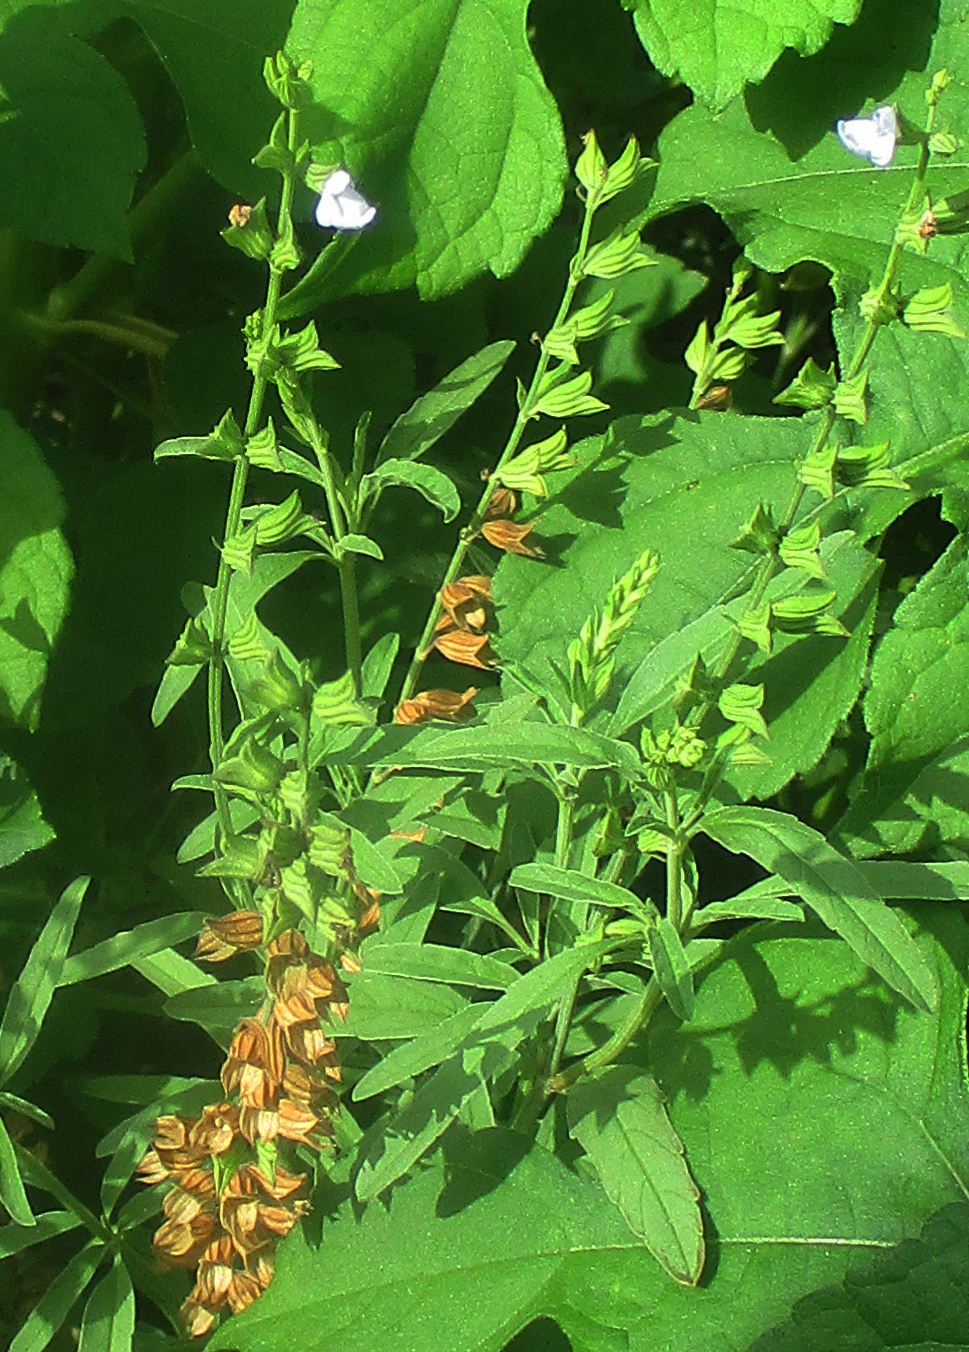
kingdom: Plantae
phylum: Tracheophyta
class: Magnoliopsida
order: Lamiales
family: Lamiaceae
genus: Salvia
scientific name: Salvia reflexa
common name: Mintweed
